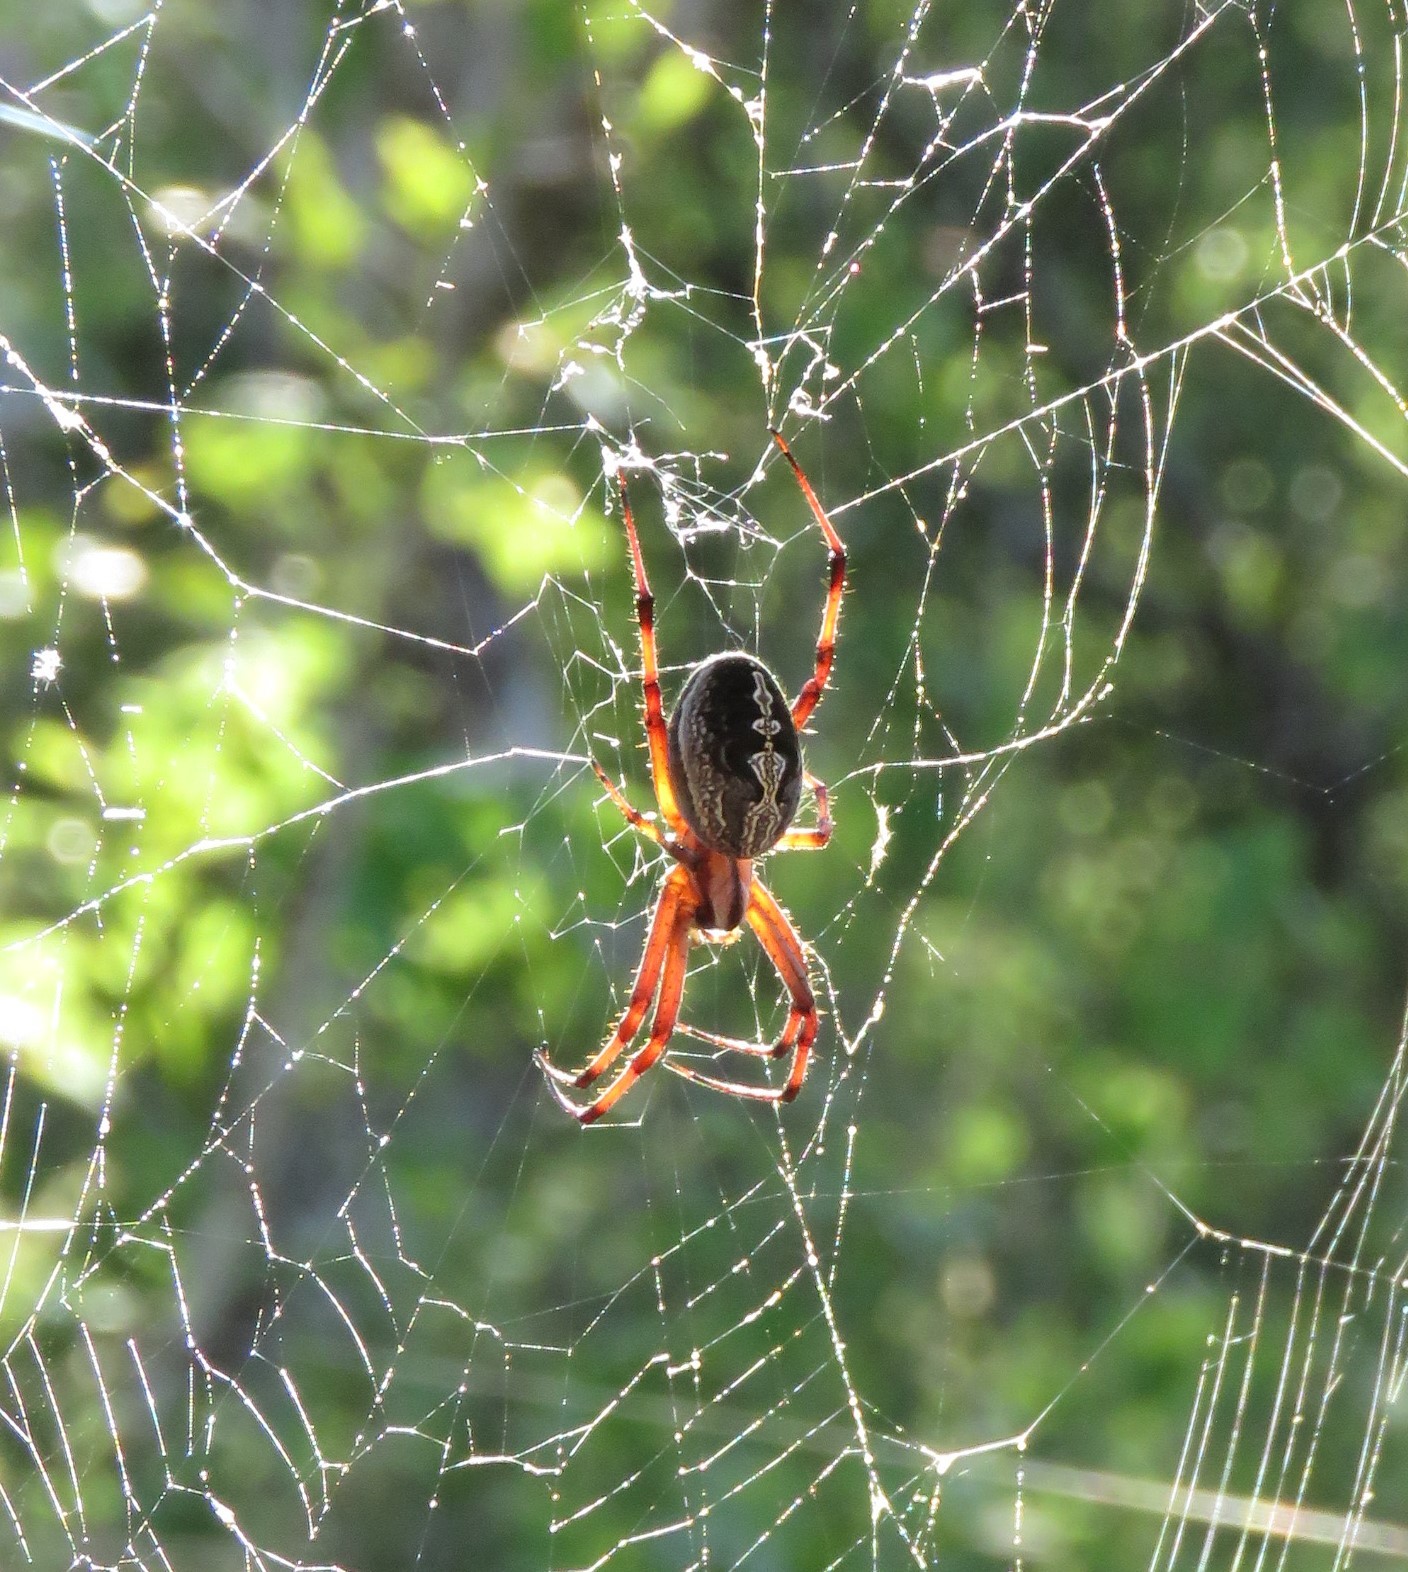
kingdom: Animalia
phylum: Arthropoda
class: Arachnida
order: Araneae
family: Araneidae
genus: Neoscona
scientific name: Neoscona oaxacensis
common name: Orb weavers
